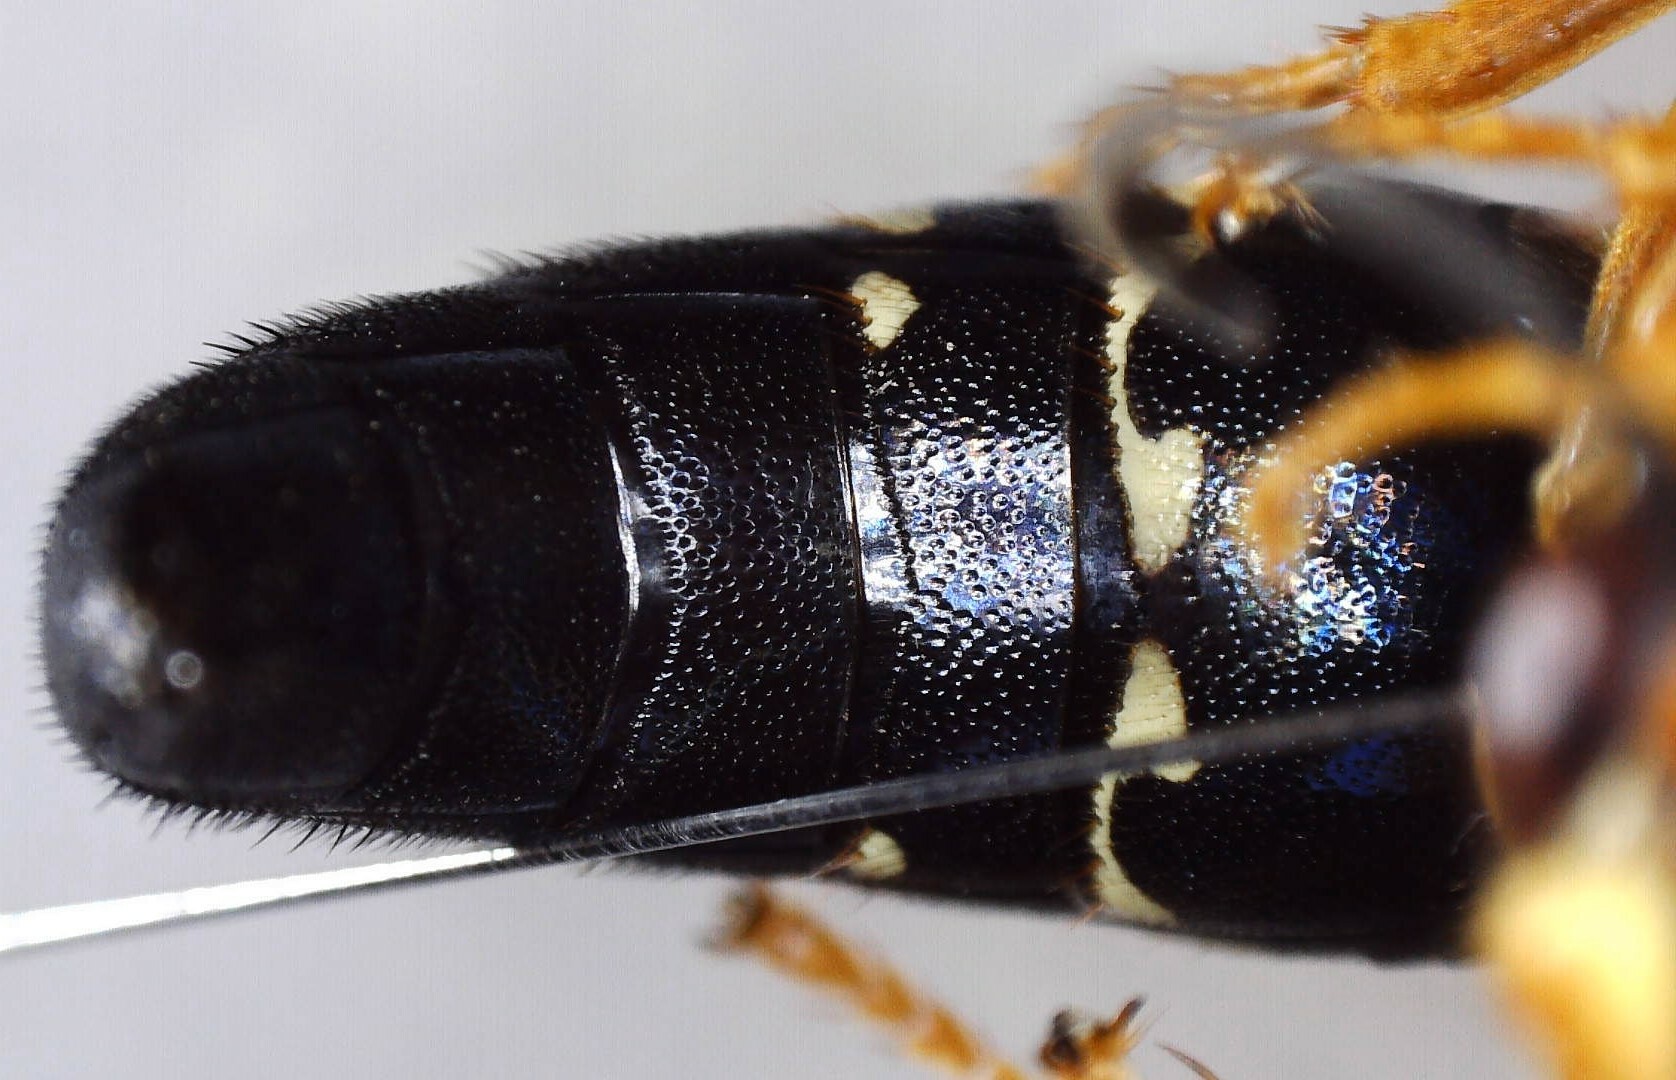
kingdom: Animalia
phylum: Arthropoda
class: Insecta
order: Hymenoptera
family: Crabronidae
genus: Sphecius
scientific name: Sphecius speciosus
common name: Cicada killer
